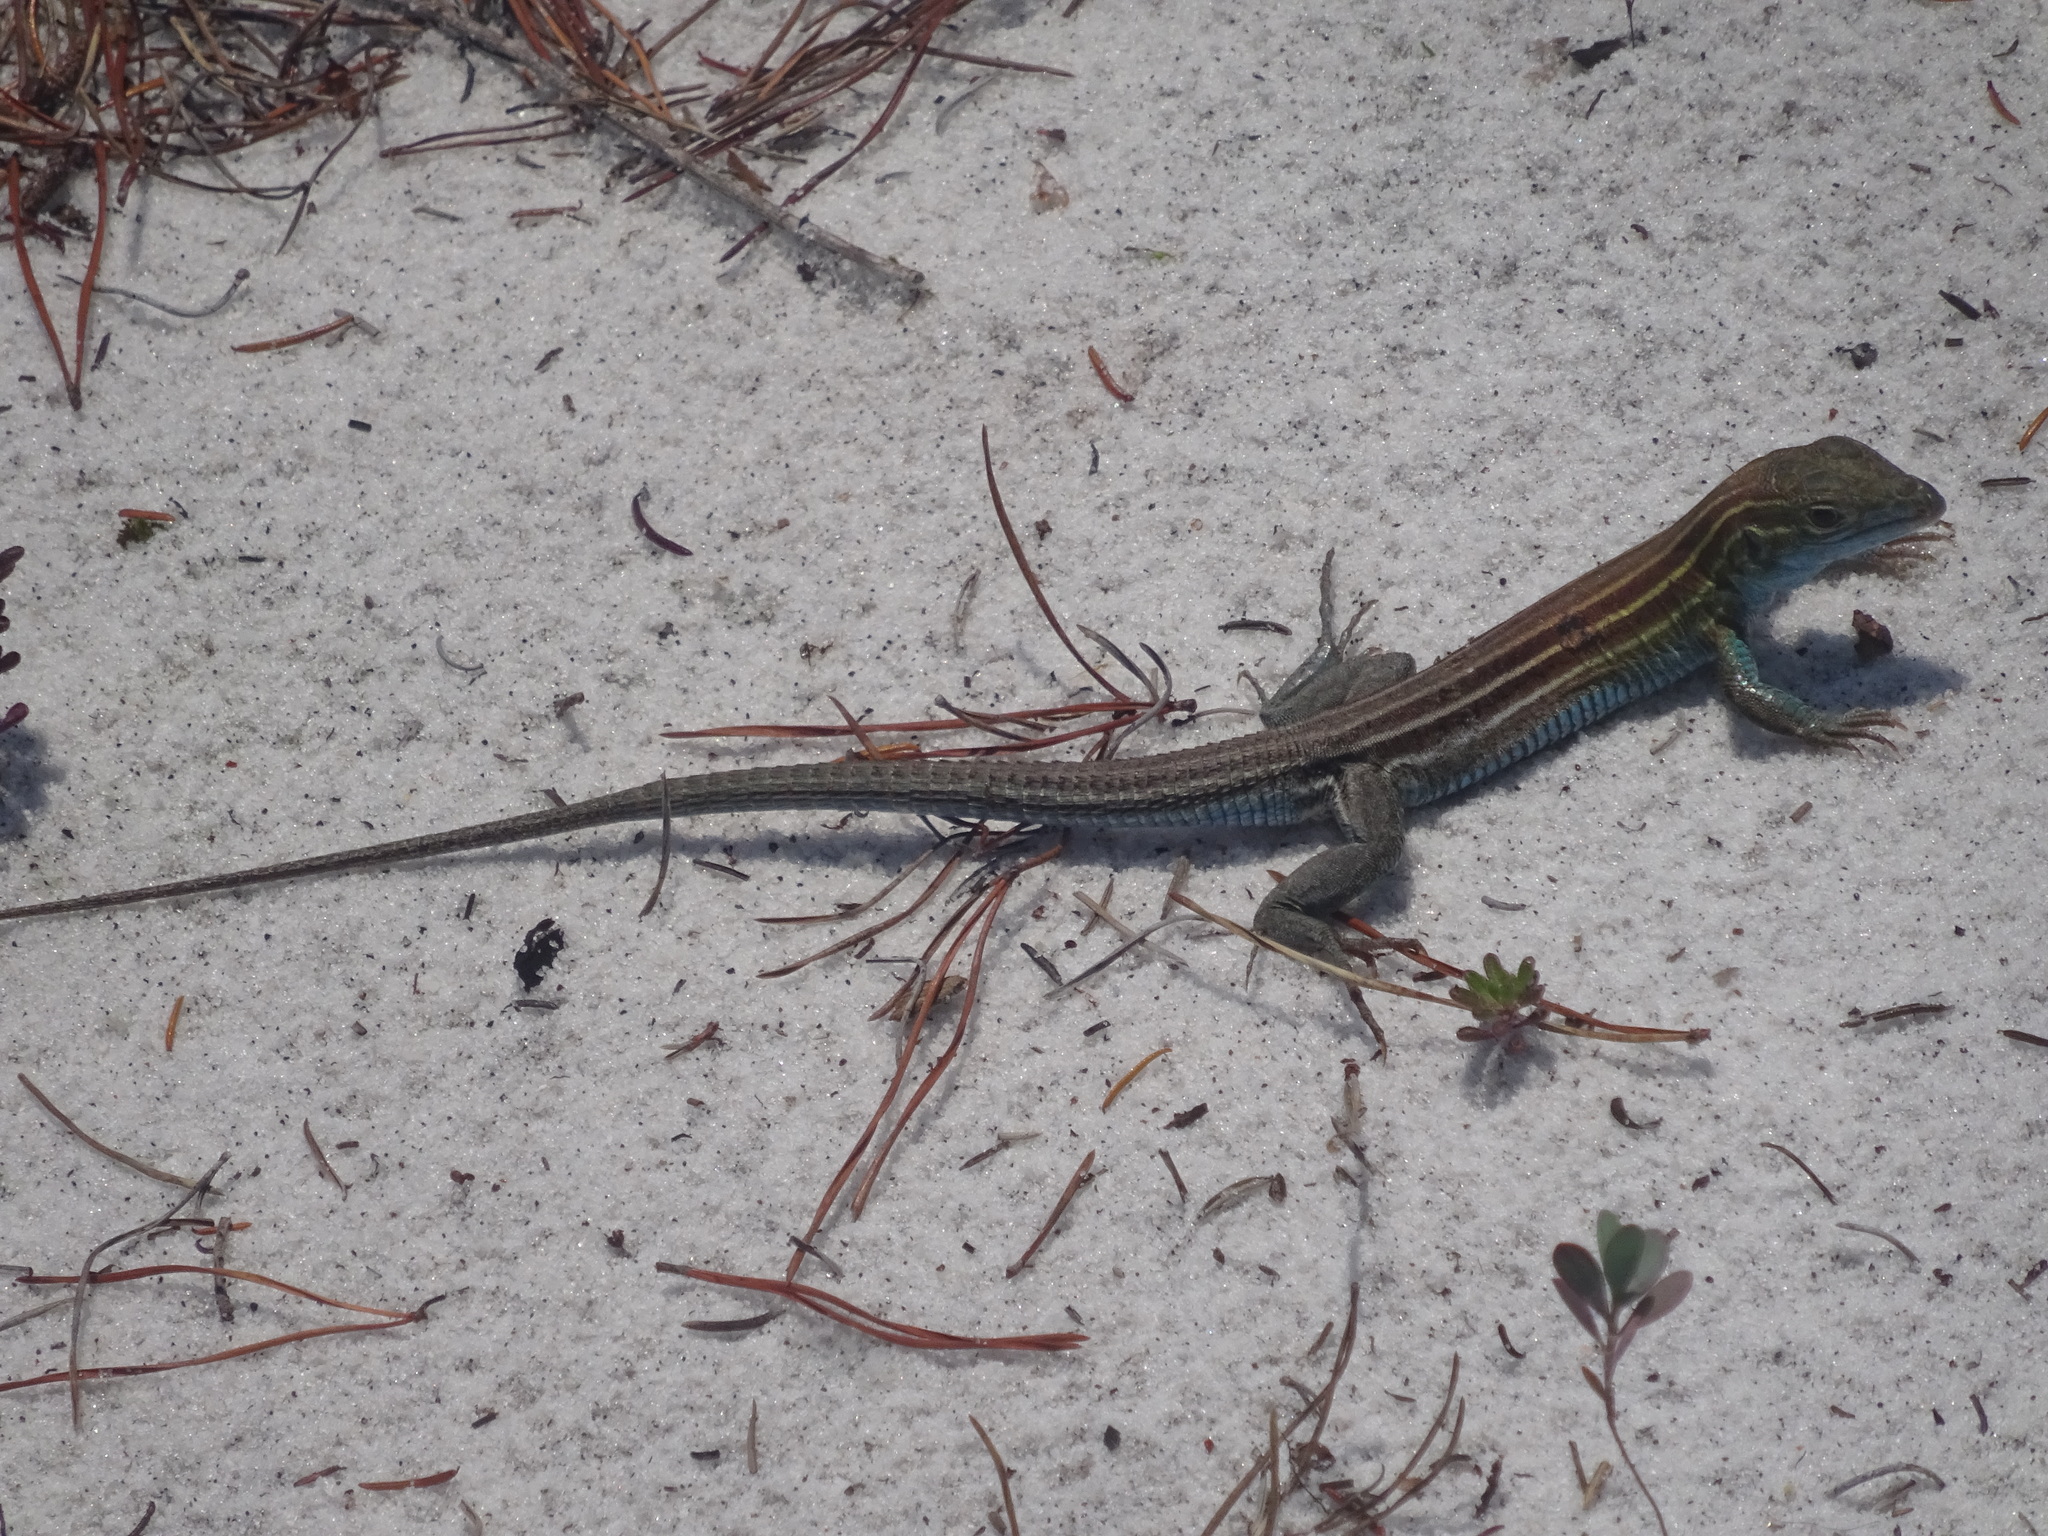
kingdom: Animalia
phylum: Chordata
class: Squamata
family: Teiidae
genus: Aspidoscelis
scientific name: Aspidoscelis sexlineatus
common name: Six-lined racerunner
